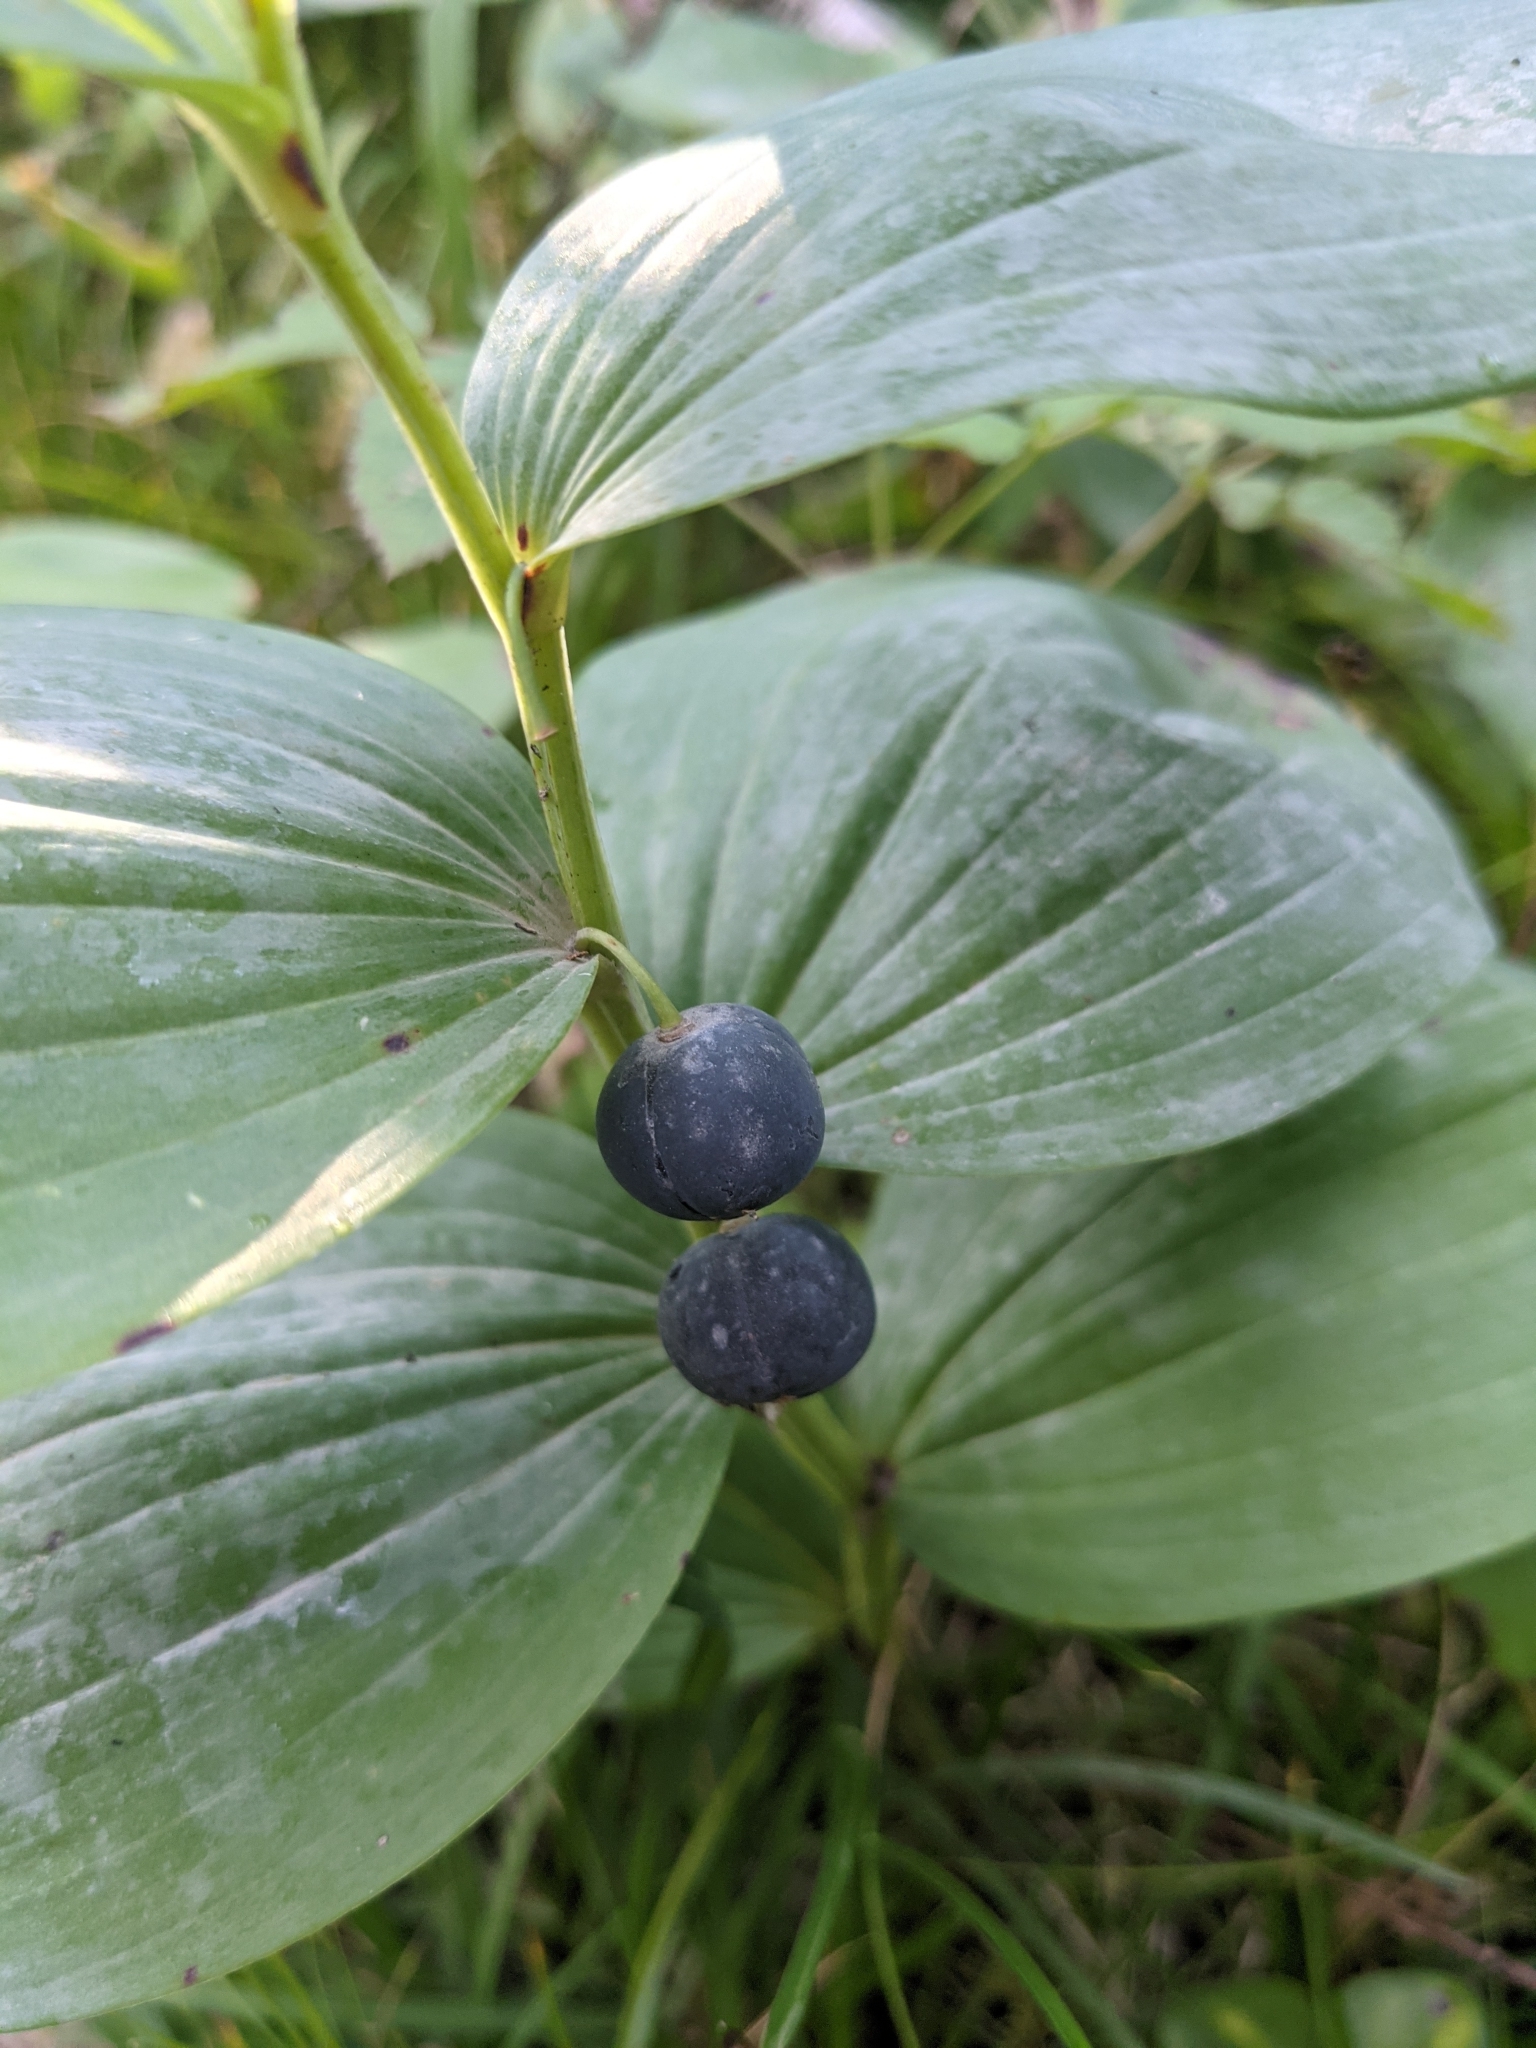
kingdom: Plantae
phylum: Tracheophyta
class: Liliopsida
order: Asparagales
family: Asparagaceae
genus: Polygonatum
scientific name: Polygonatum odoratum
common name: Angular solomon's-seal
